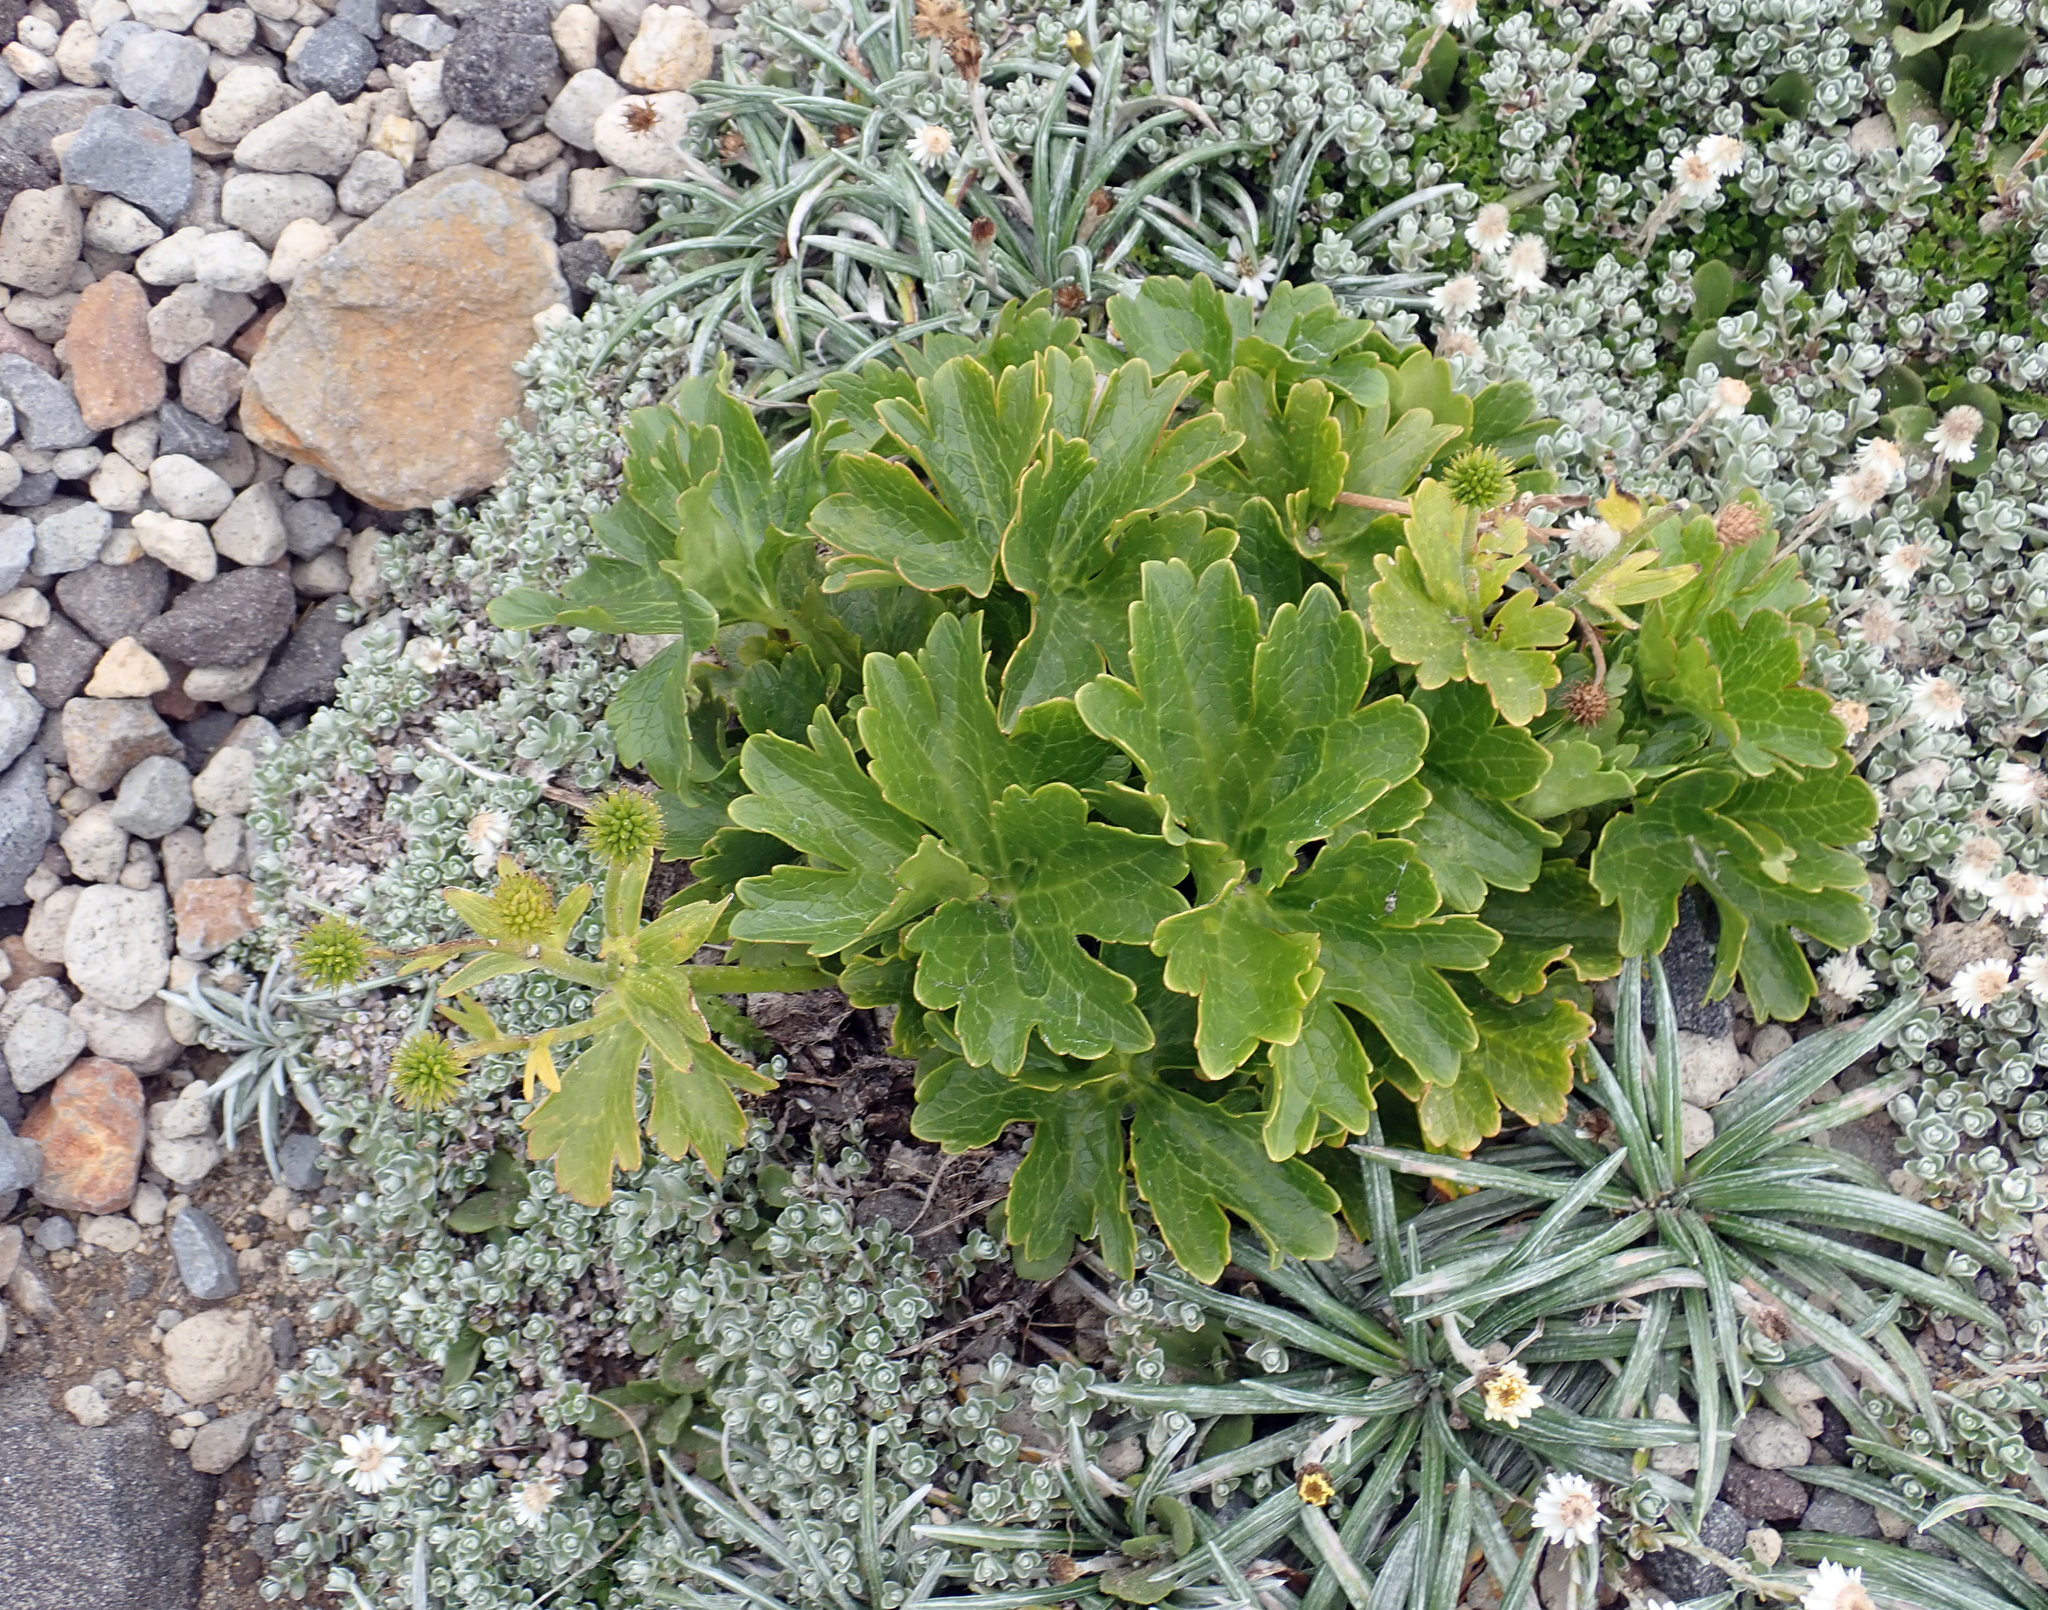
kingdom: Plantae
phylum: Tracheophyta
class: Magnoliopsida
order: Ranunculales
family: Ranunculaceae
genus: Ranunculus
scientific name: Ranunculus nivicola
